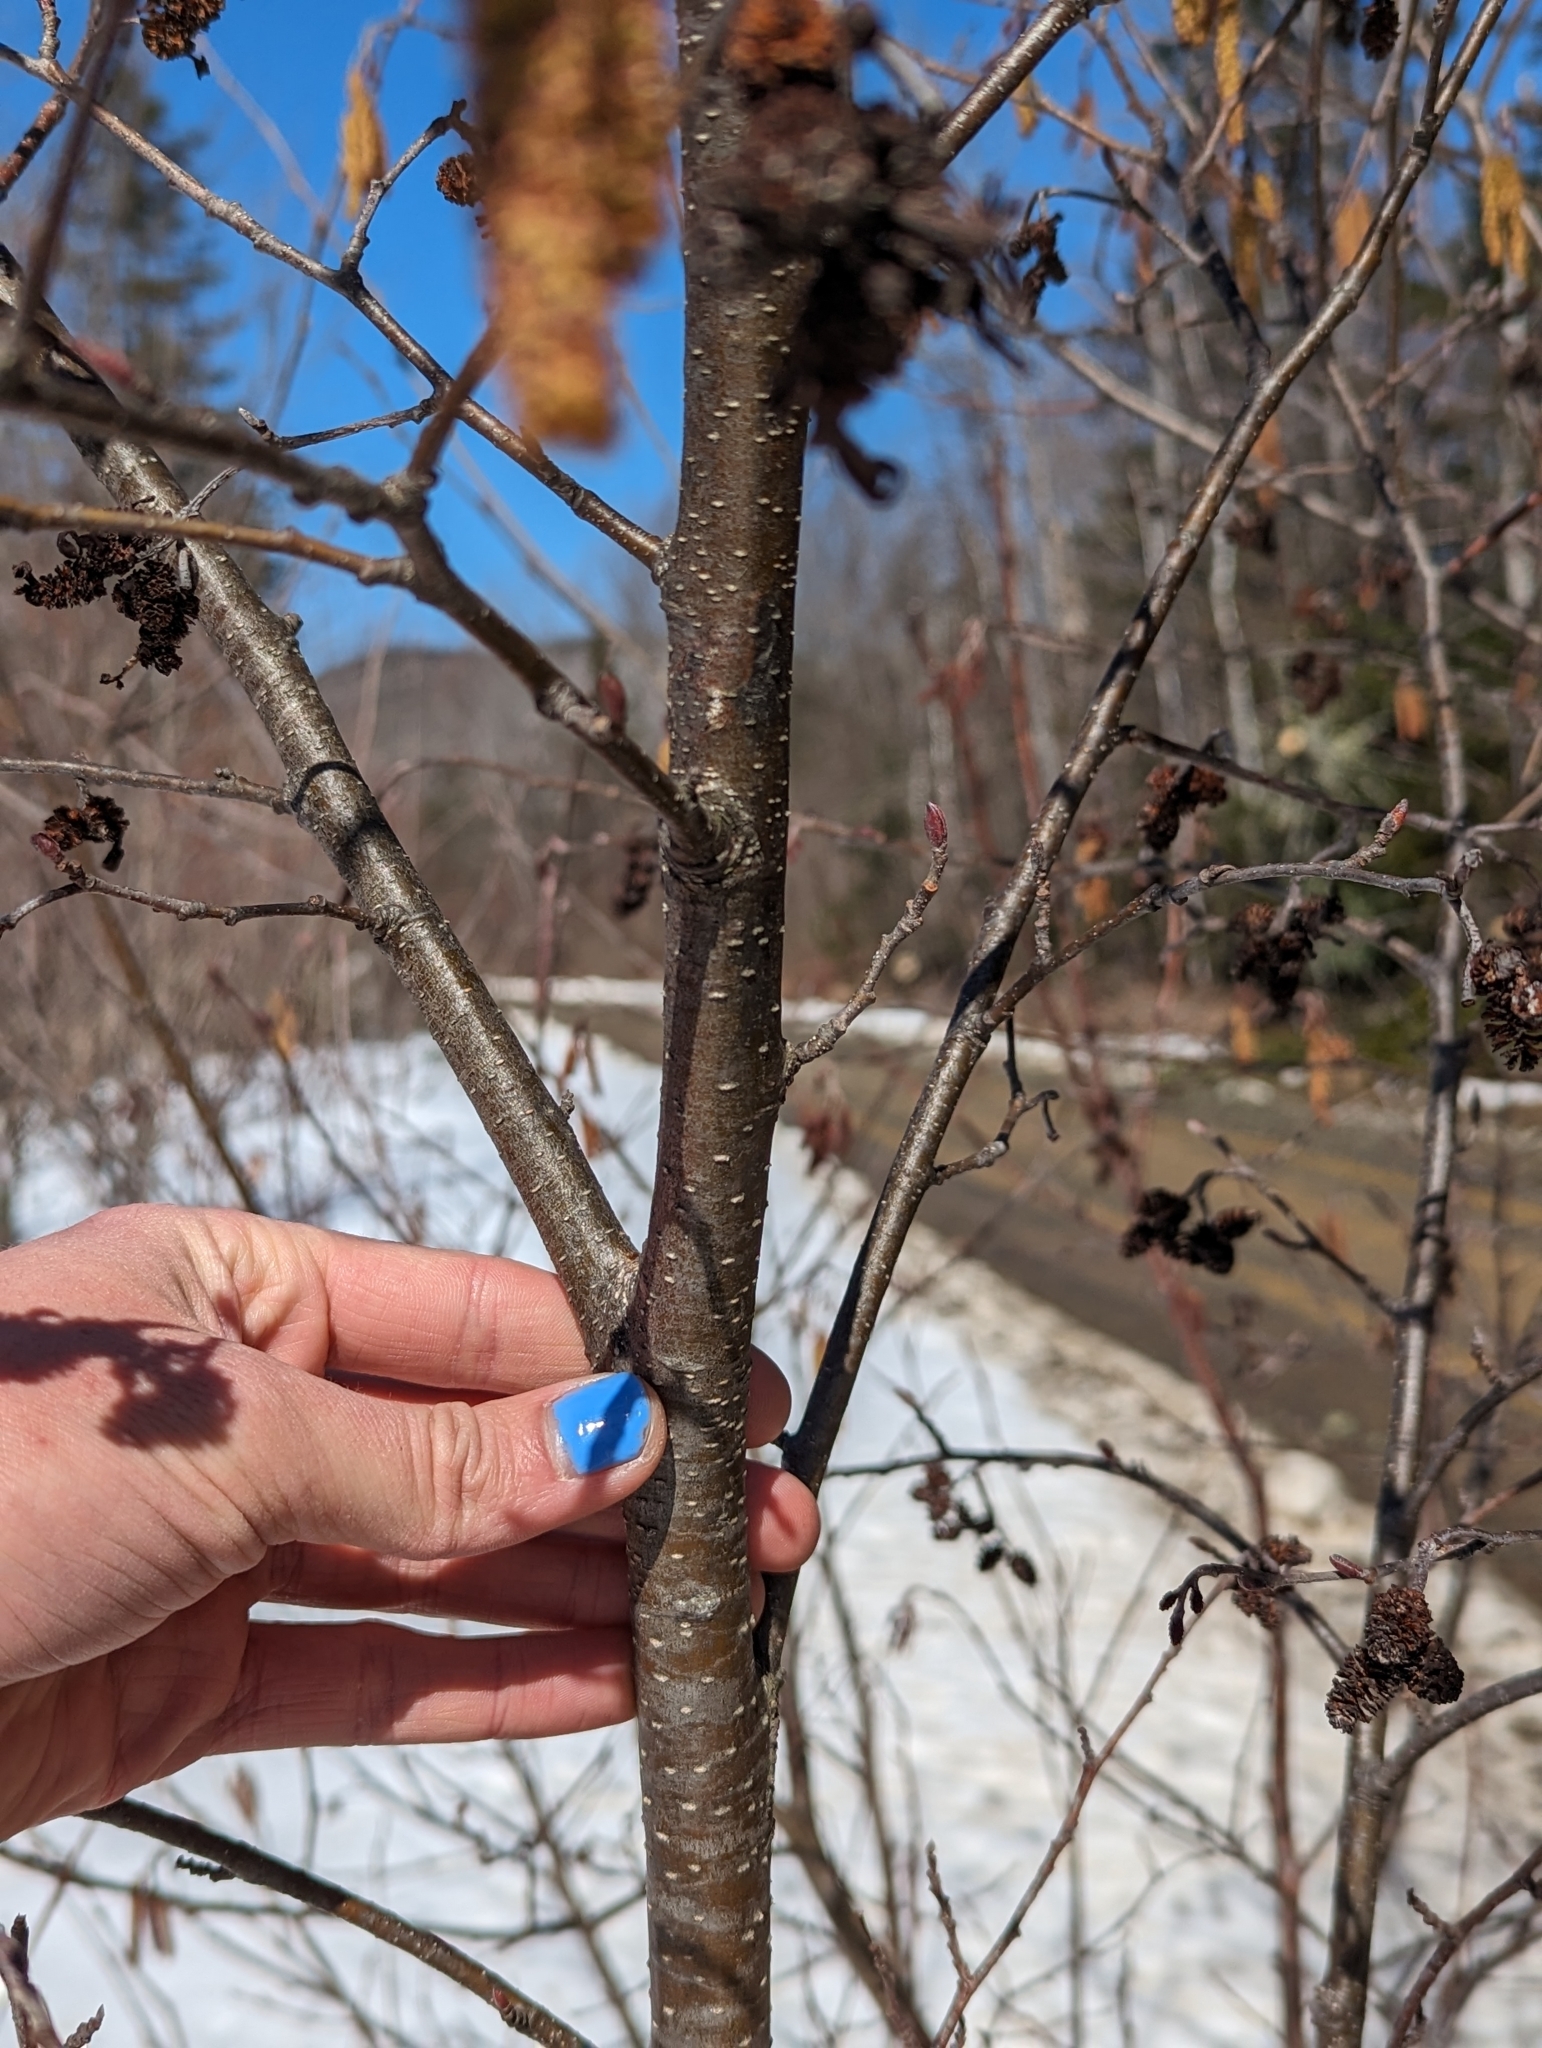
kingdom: Plantae
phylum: Tracheophyta
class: Magnoliopsida
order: Fagales
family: Betulaceae
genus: Alnus
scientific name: Alnus incana
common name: Grey alder
